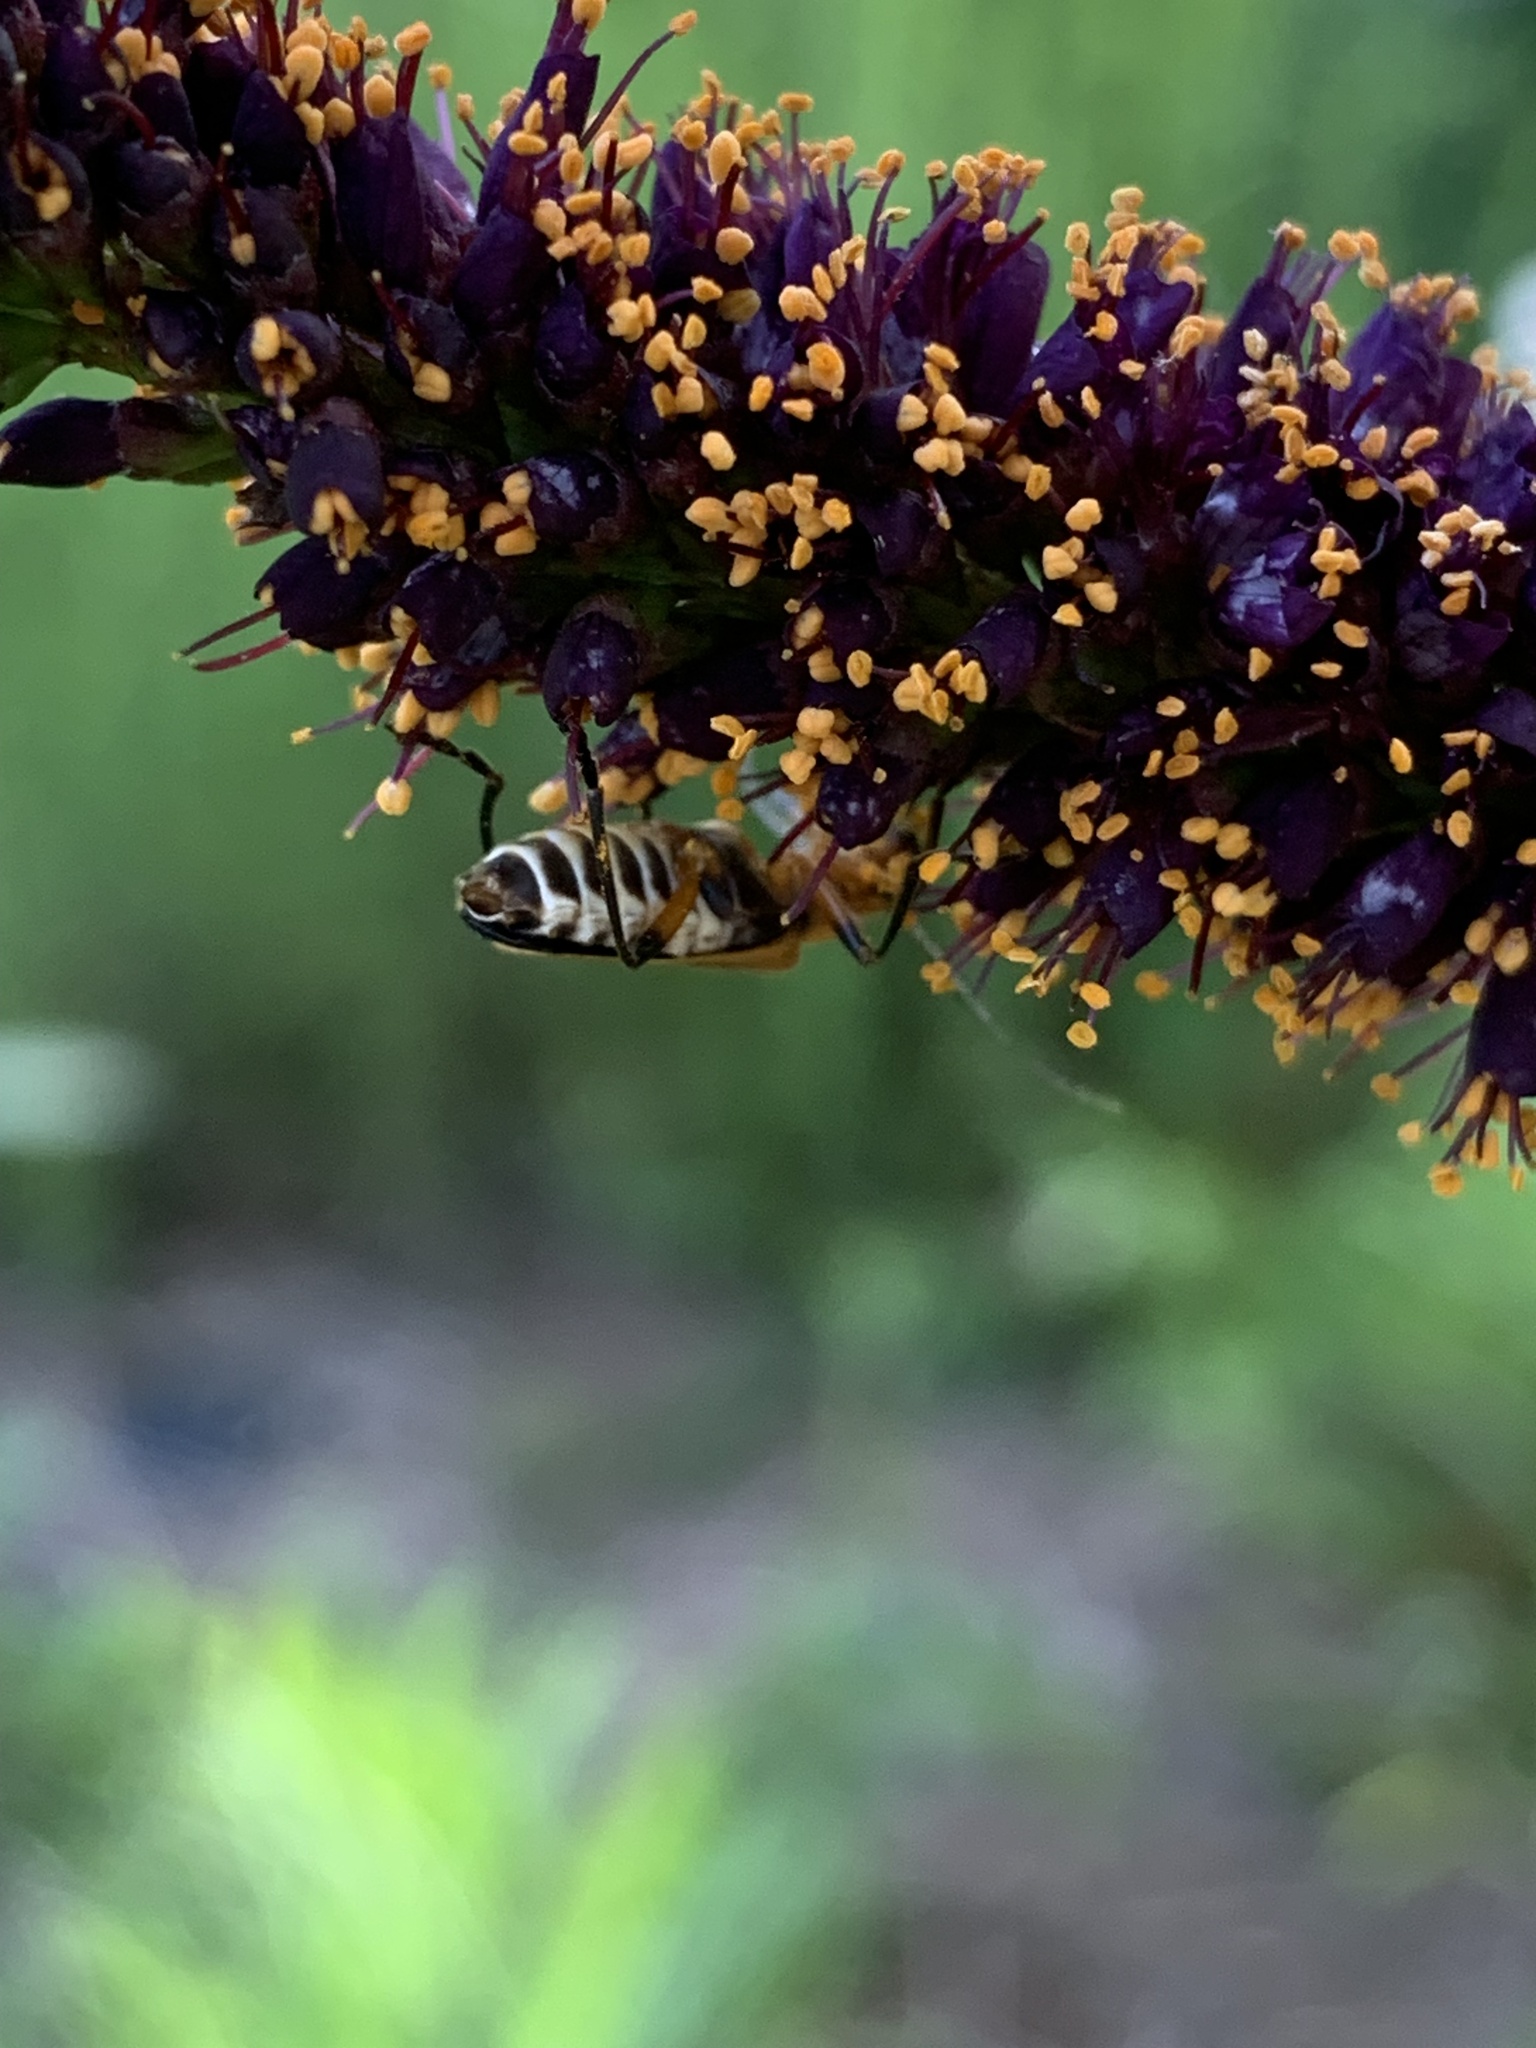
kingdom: Animalia
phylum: Arthropoda
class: Insecta
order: Coleoptera
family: Cantharidae
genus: Chauliognathus
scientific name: Chauliognathus marginatus
